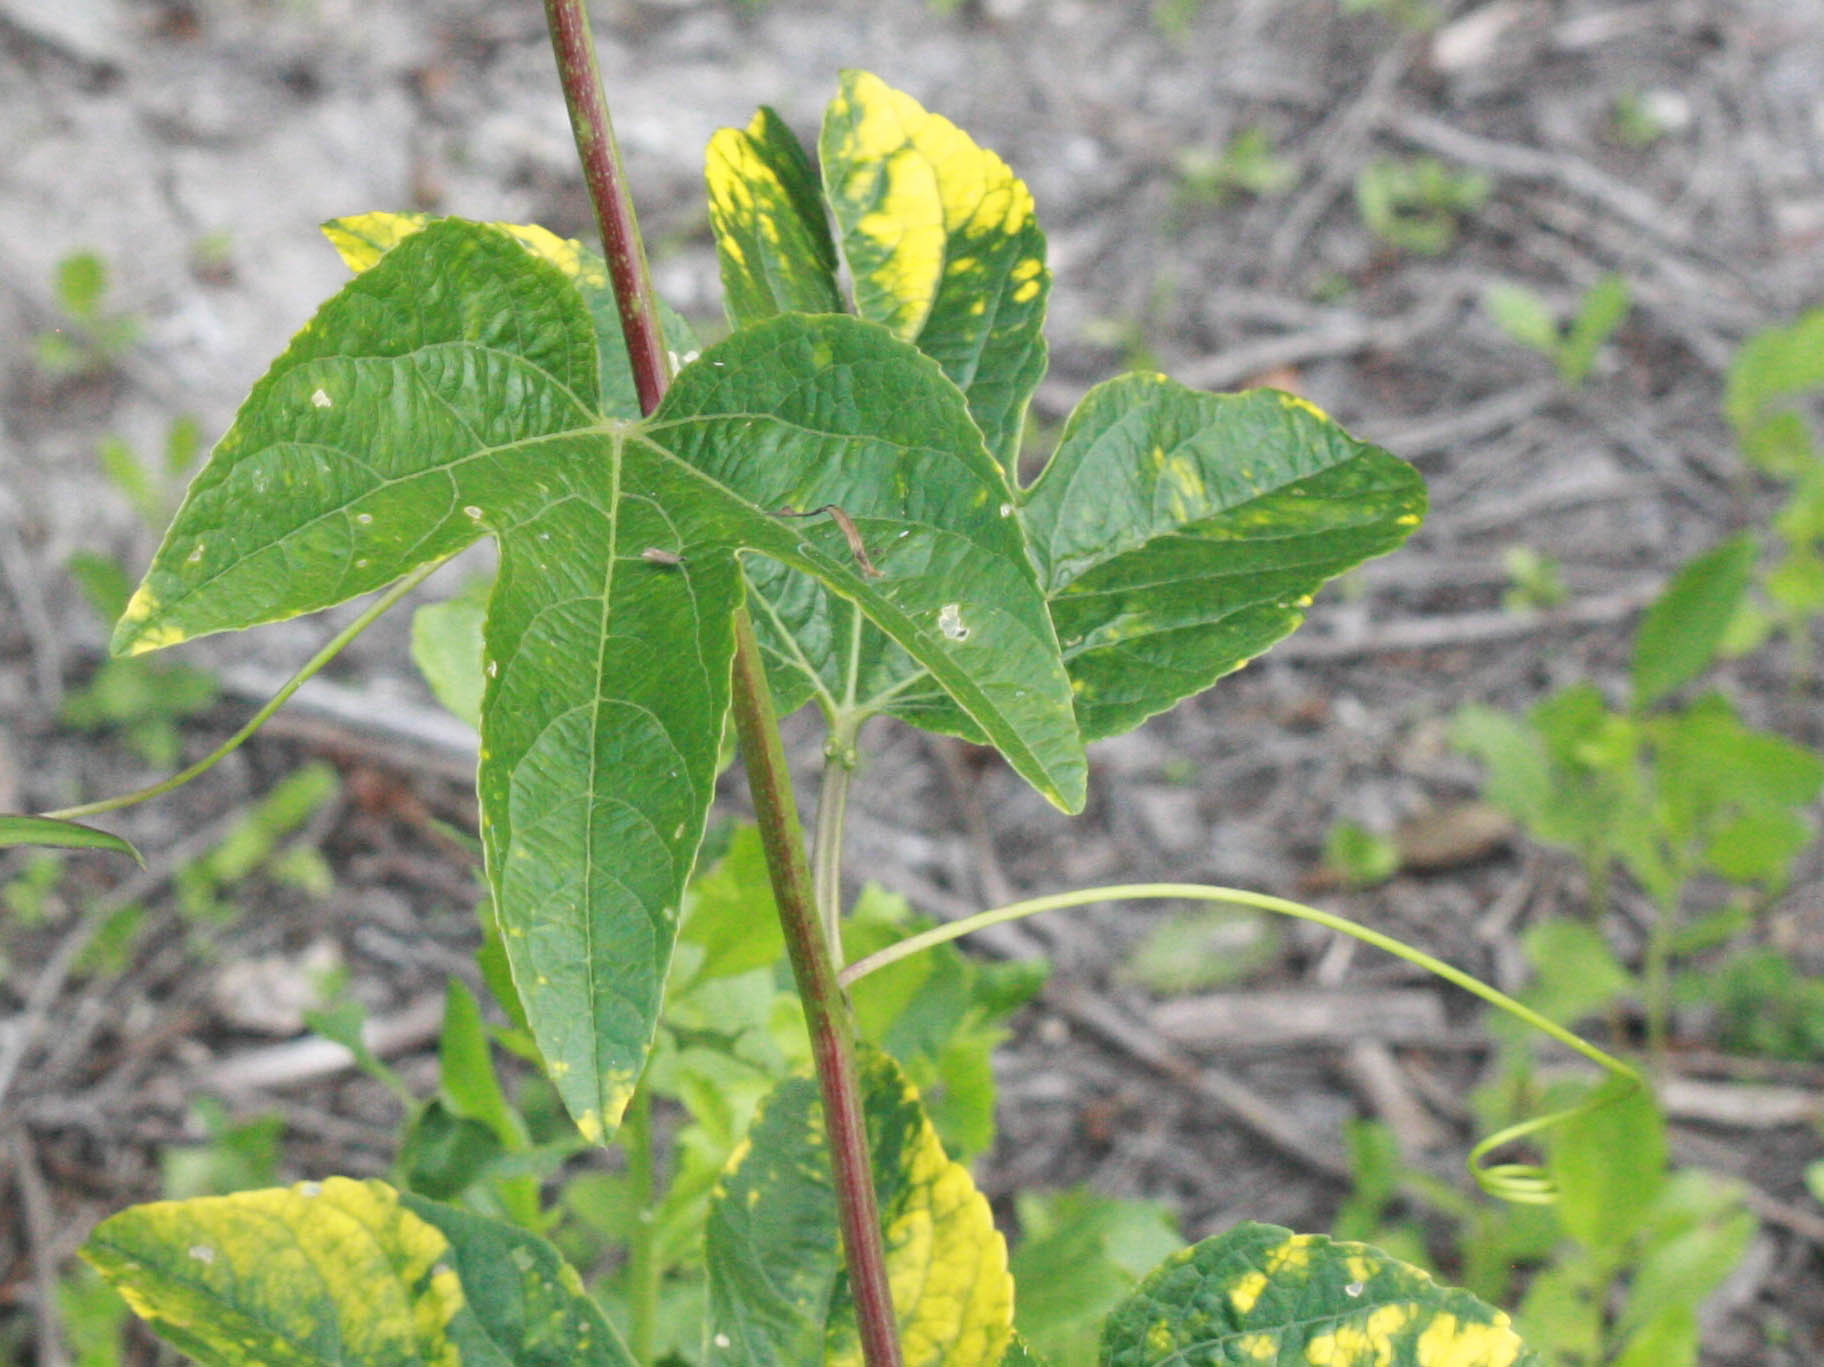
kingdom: Plantae
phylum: Tracheophyta
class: Magnoliopsida
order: Malpighiales
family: Passifloraceae
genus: Passiflora
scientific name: Passiflora incarnata
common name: Apricot-vine
